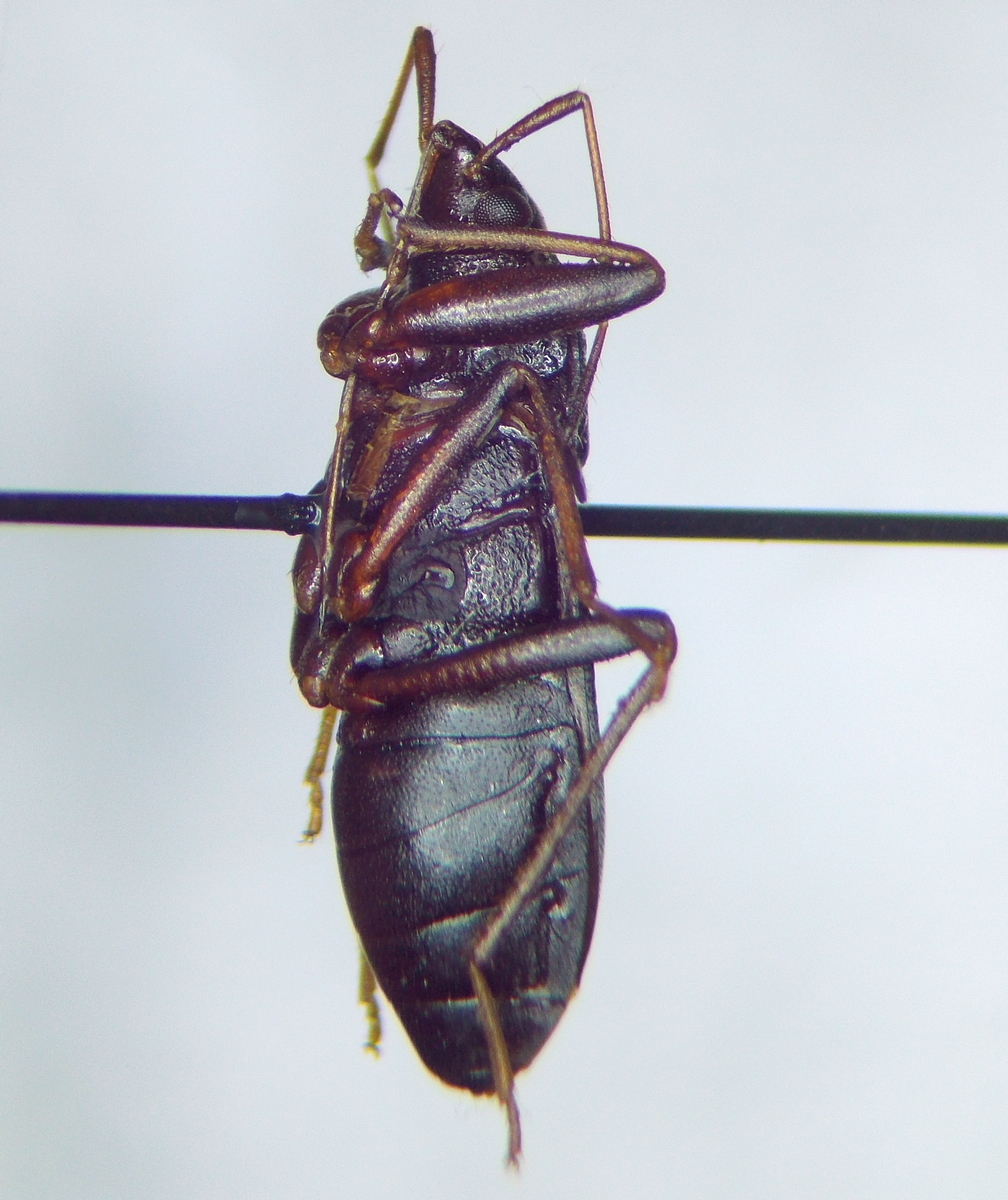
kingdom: Animalia
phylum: Arthropoda
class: Insecta
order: Hemiptera
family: Rhyparochromidae
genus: Lethaeus
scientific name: Lethaeus picipes
